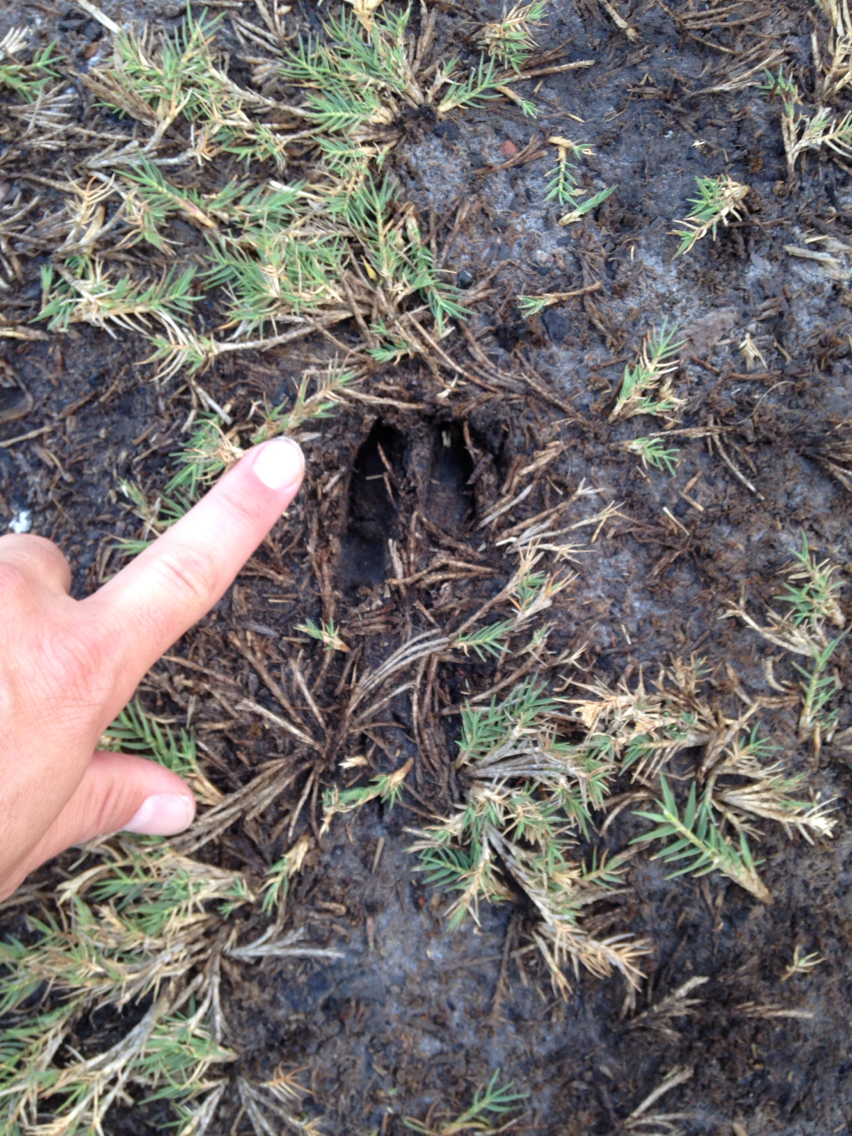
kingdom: Animalia
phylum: Chordata
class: Mammalia
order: Artiodactyla
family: Cervidae
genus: Odocoileus
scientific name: Odocoileus hemionus
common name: Mule deer
